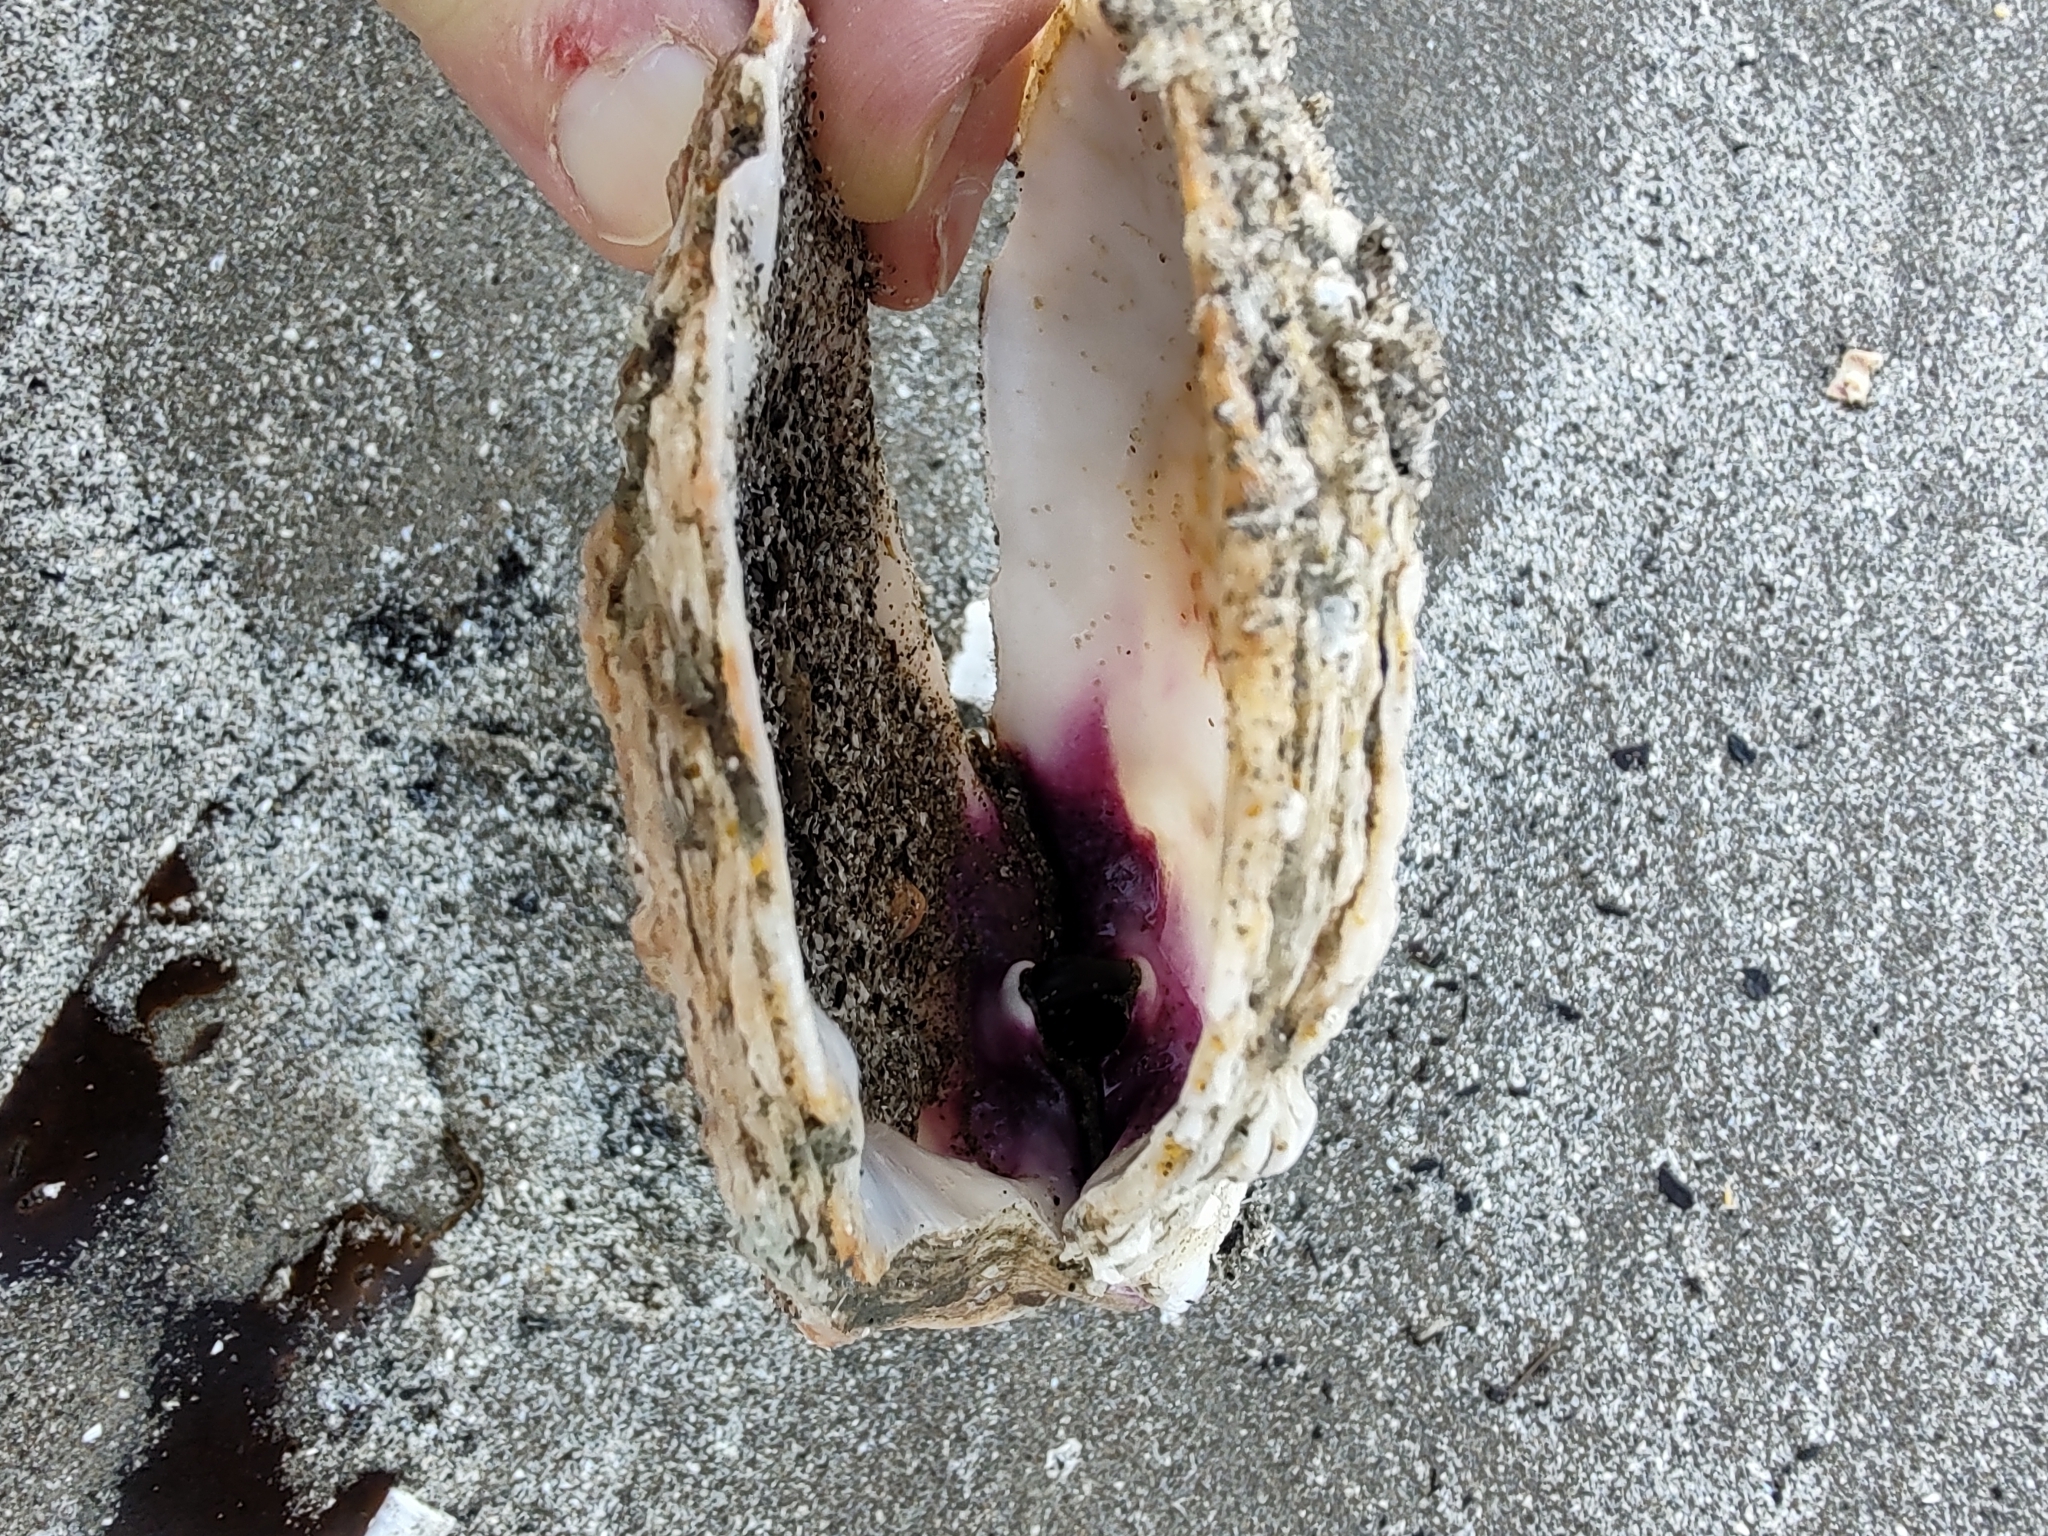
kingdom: Animalia
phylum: Mollusca
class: Bivalvia
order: Pectinida
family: Pectinidae
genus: Crassadoma
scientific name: Crassadoma gigantea
